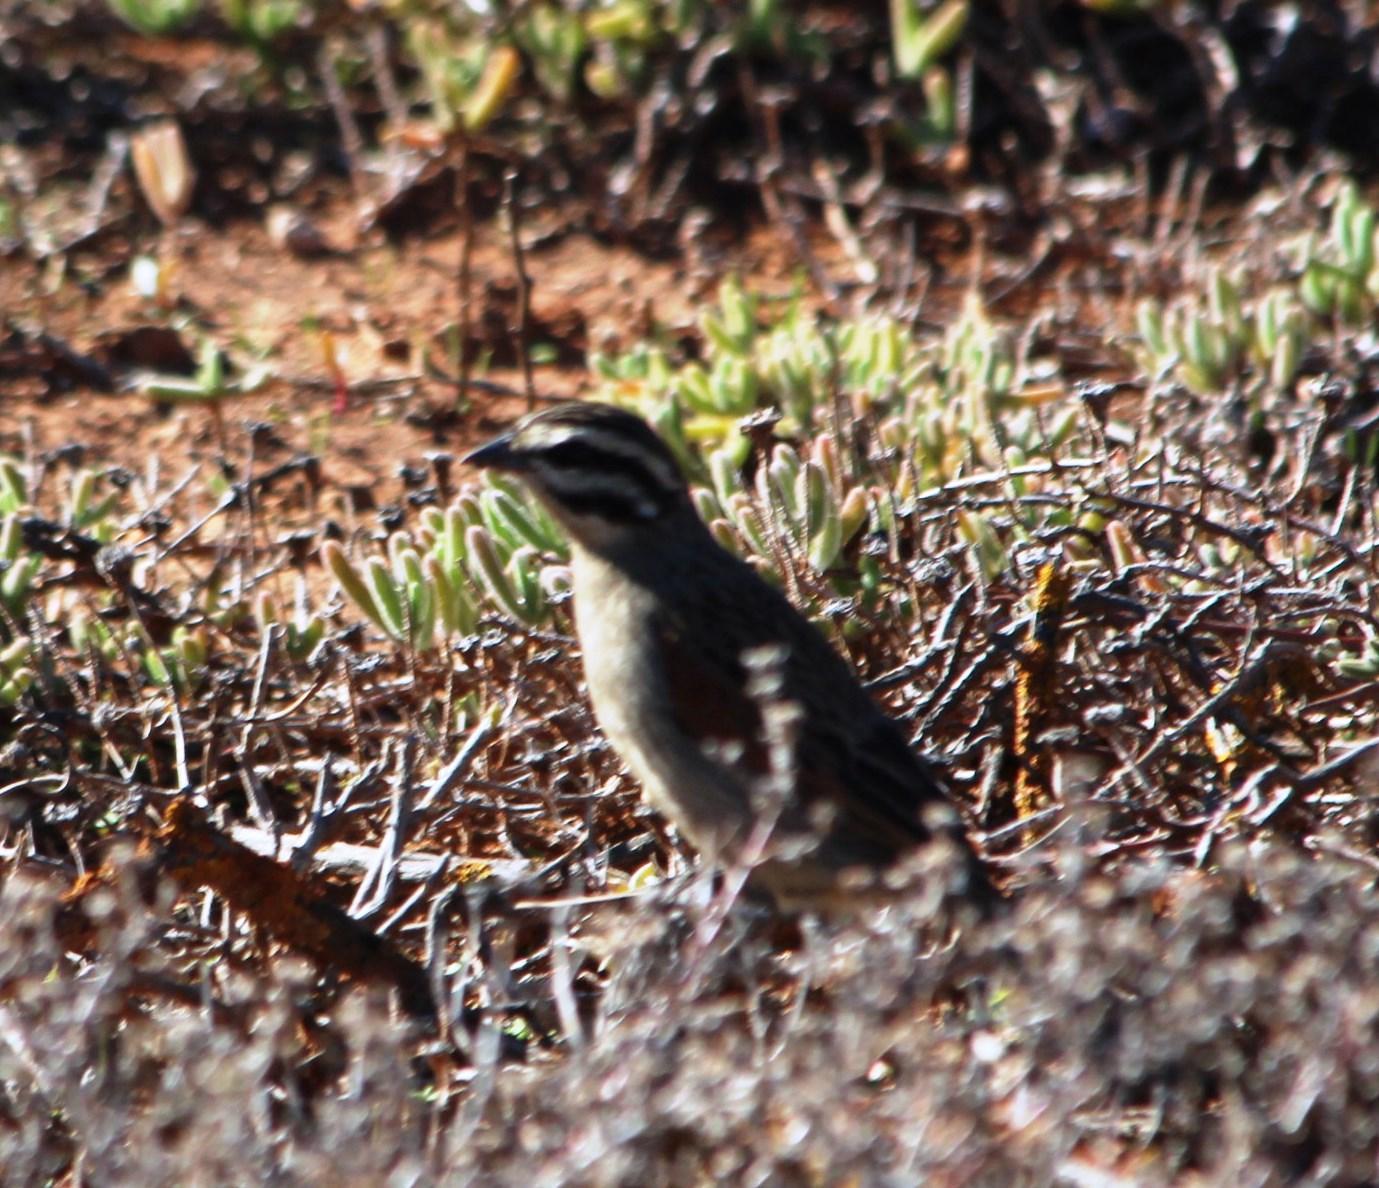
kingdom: Animalia
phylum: Chordata
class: Aves
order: Passeriformes
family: Emberizidae
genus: Emberiza
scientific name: Emberiza capensis
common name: Cape bunting
